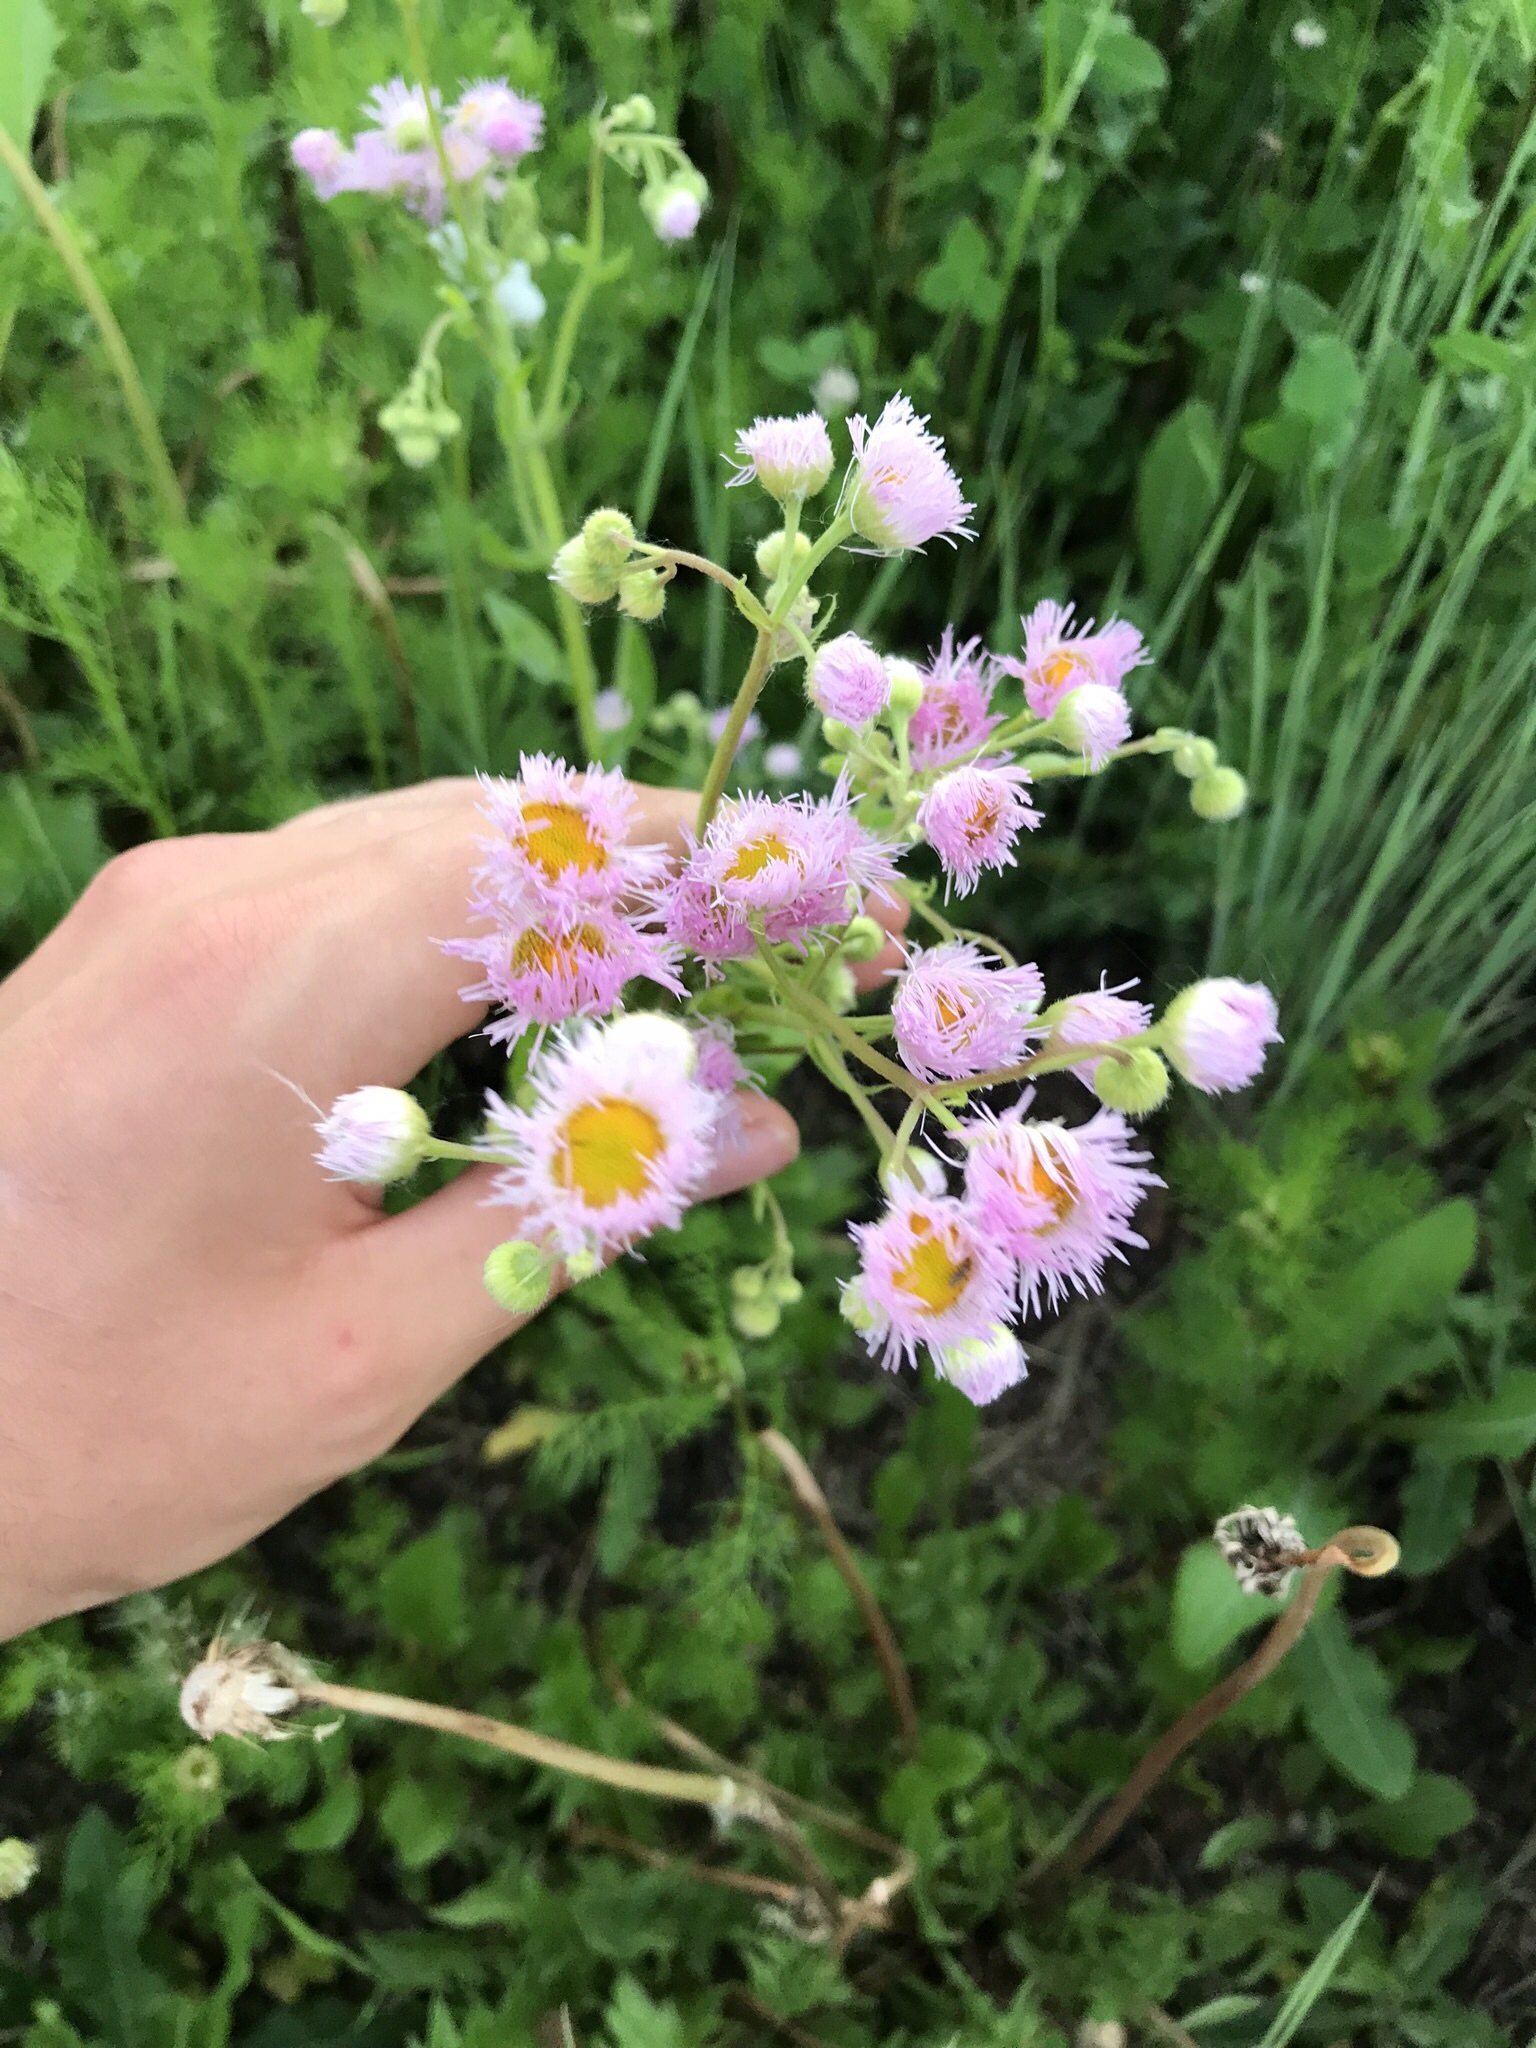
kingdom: Plantae
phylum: Tracheophyta
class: Magnoliopsida
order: Asterales
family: Asteraceae
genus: Erigeron
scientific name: Erigeron philadelphicus
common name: Robin's-plantain
